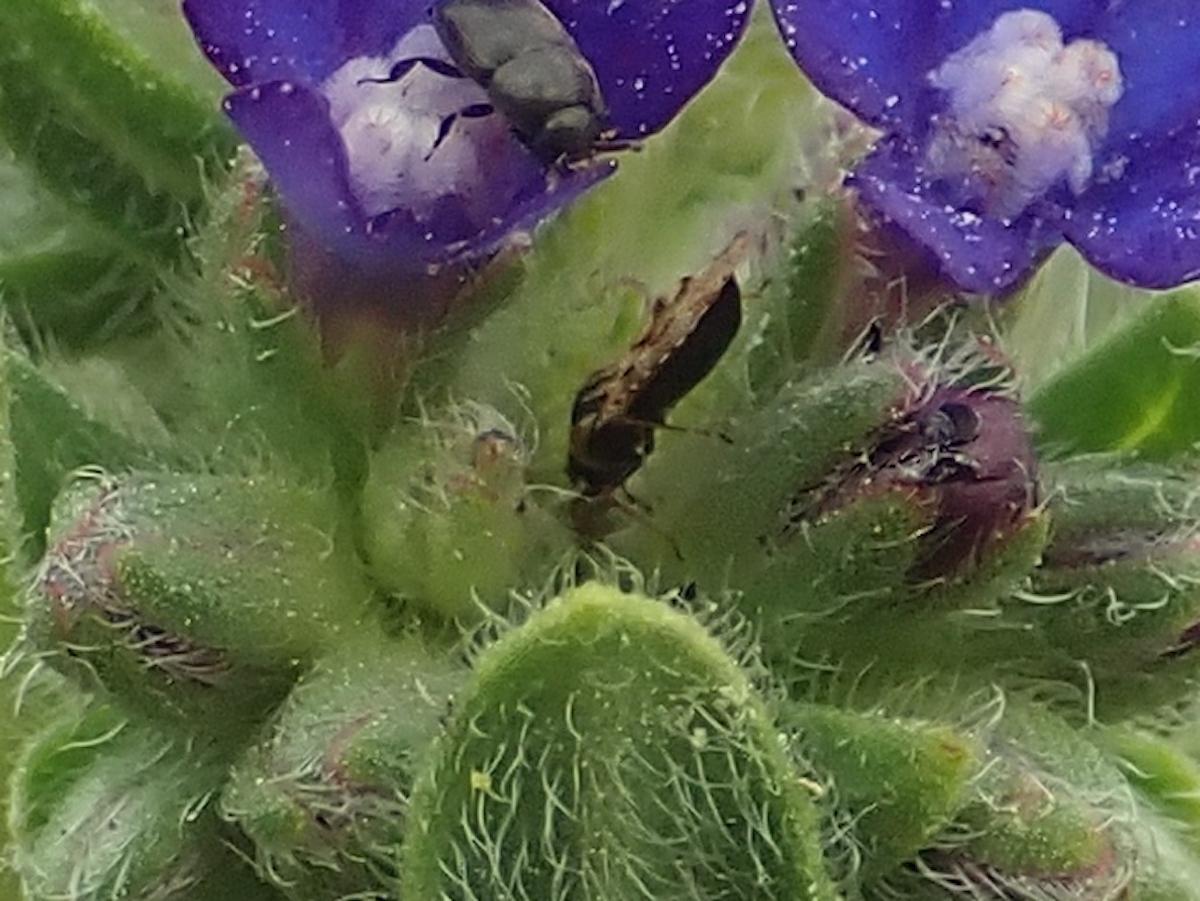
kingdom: Animalia
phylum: Arthropoda
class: Insecta
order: Hemiptera
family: Tingidae
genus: Dictyla
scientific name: Dictyla echii
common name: Lace bug
